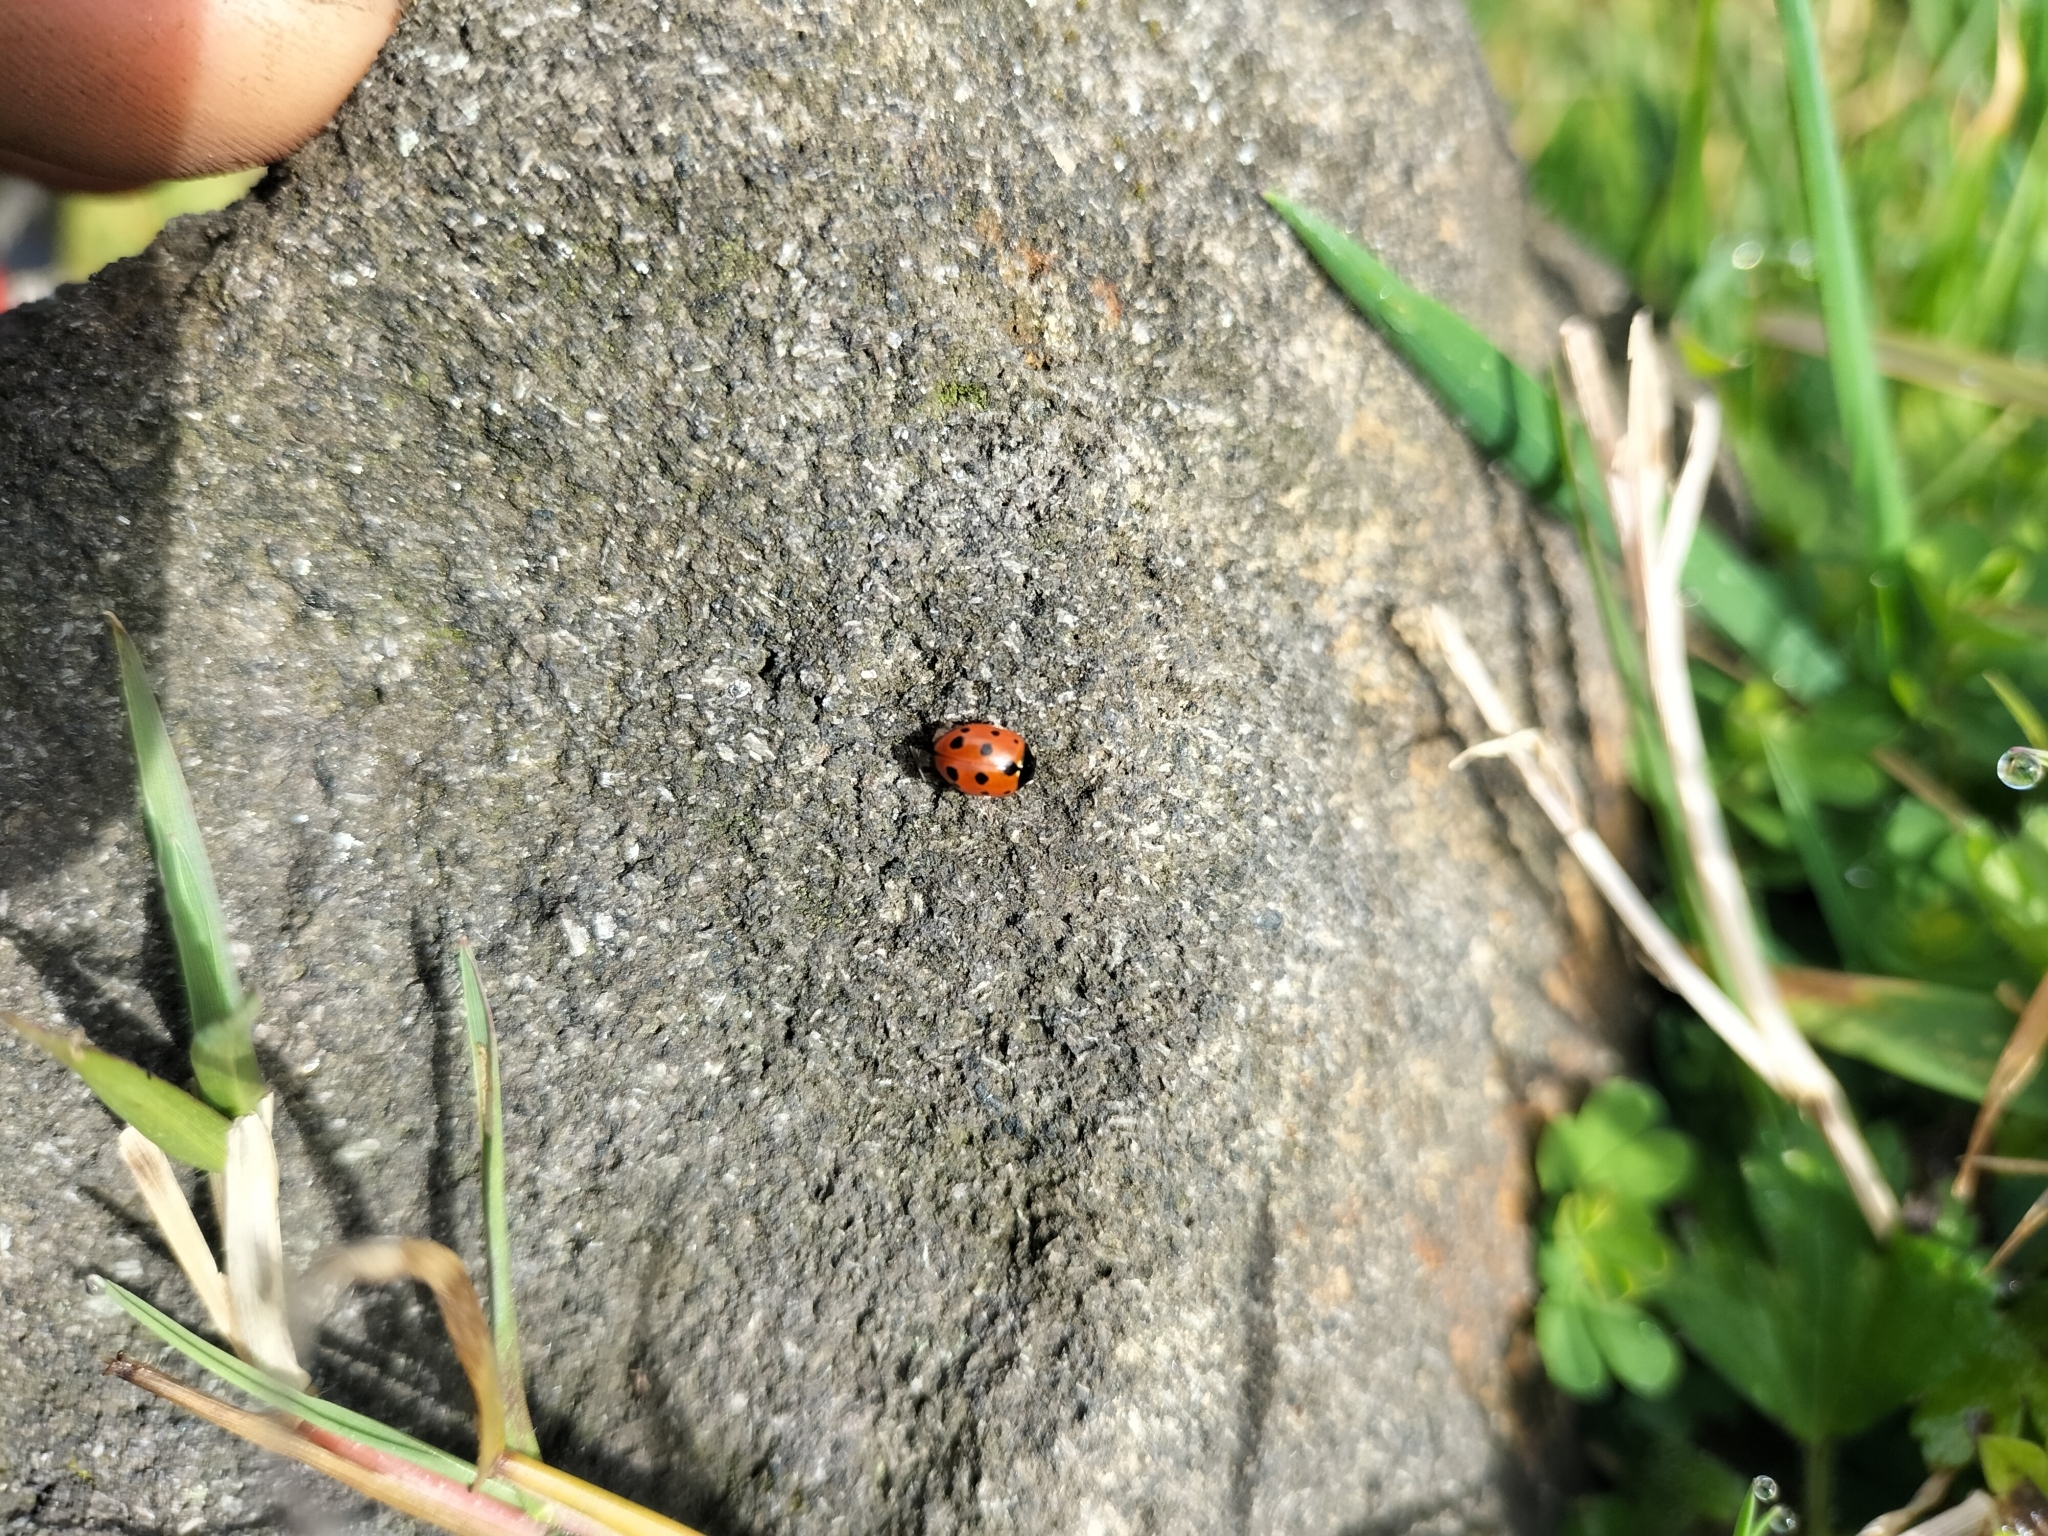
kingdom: Animalia
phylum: Arthropoda
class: Insecta
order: Coleoptera
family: Coccinellidae
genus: Coccinella
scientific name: Coccinella undecimpunctata
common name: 11-spot ladybird
